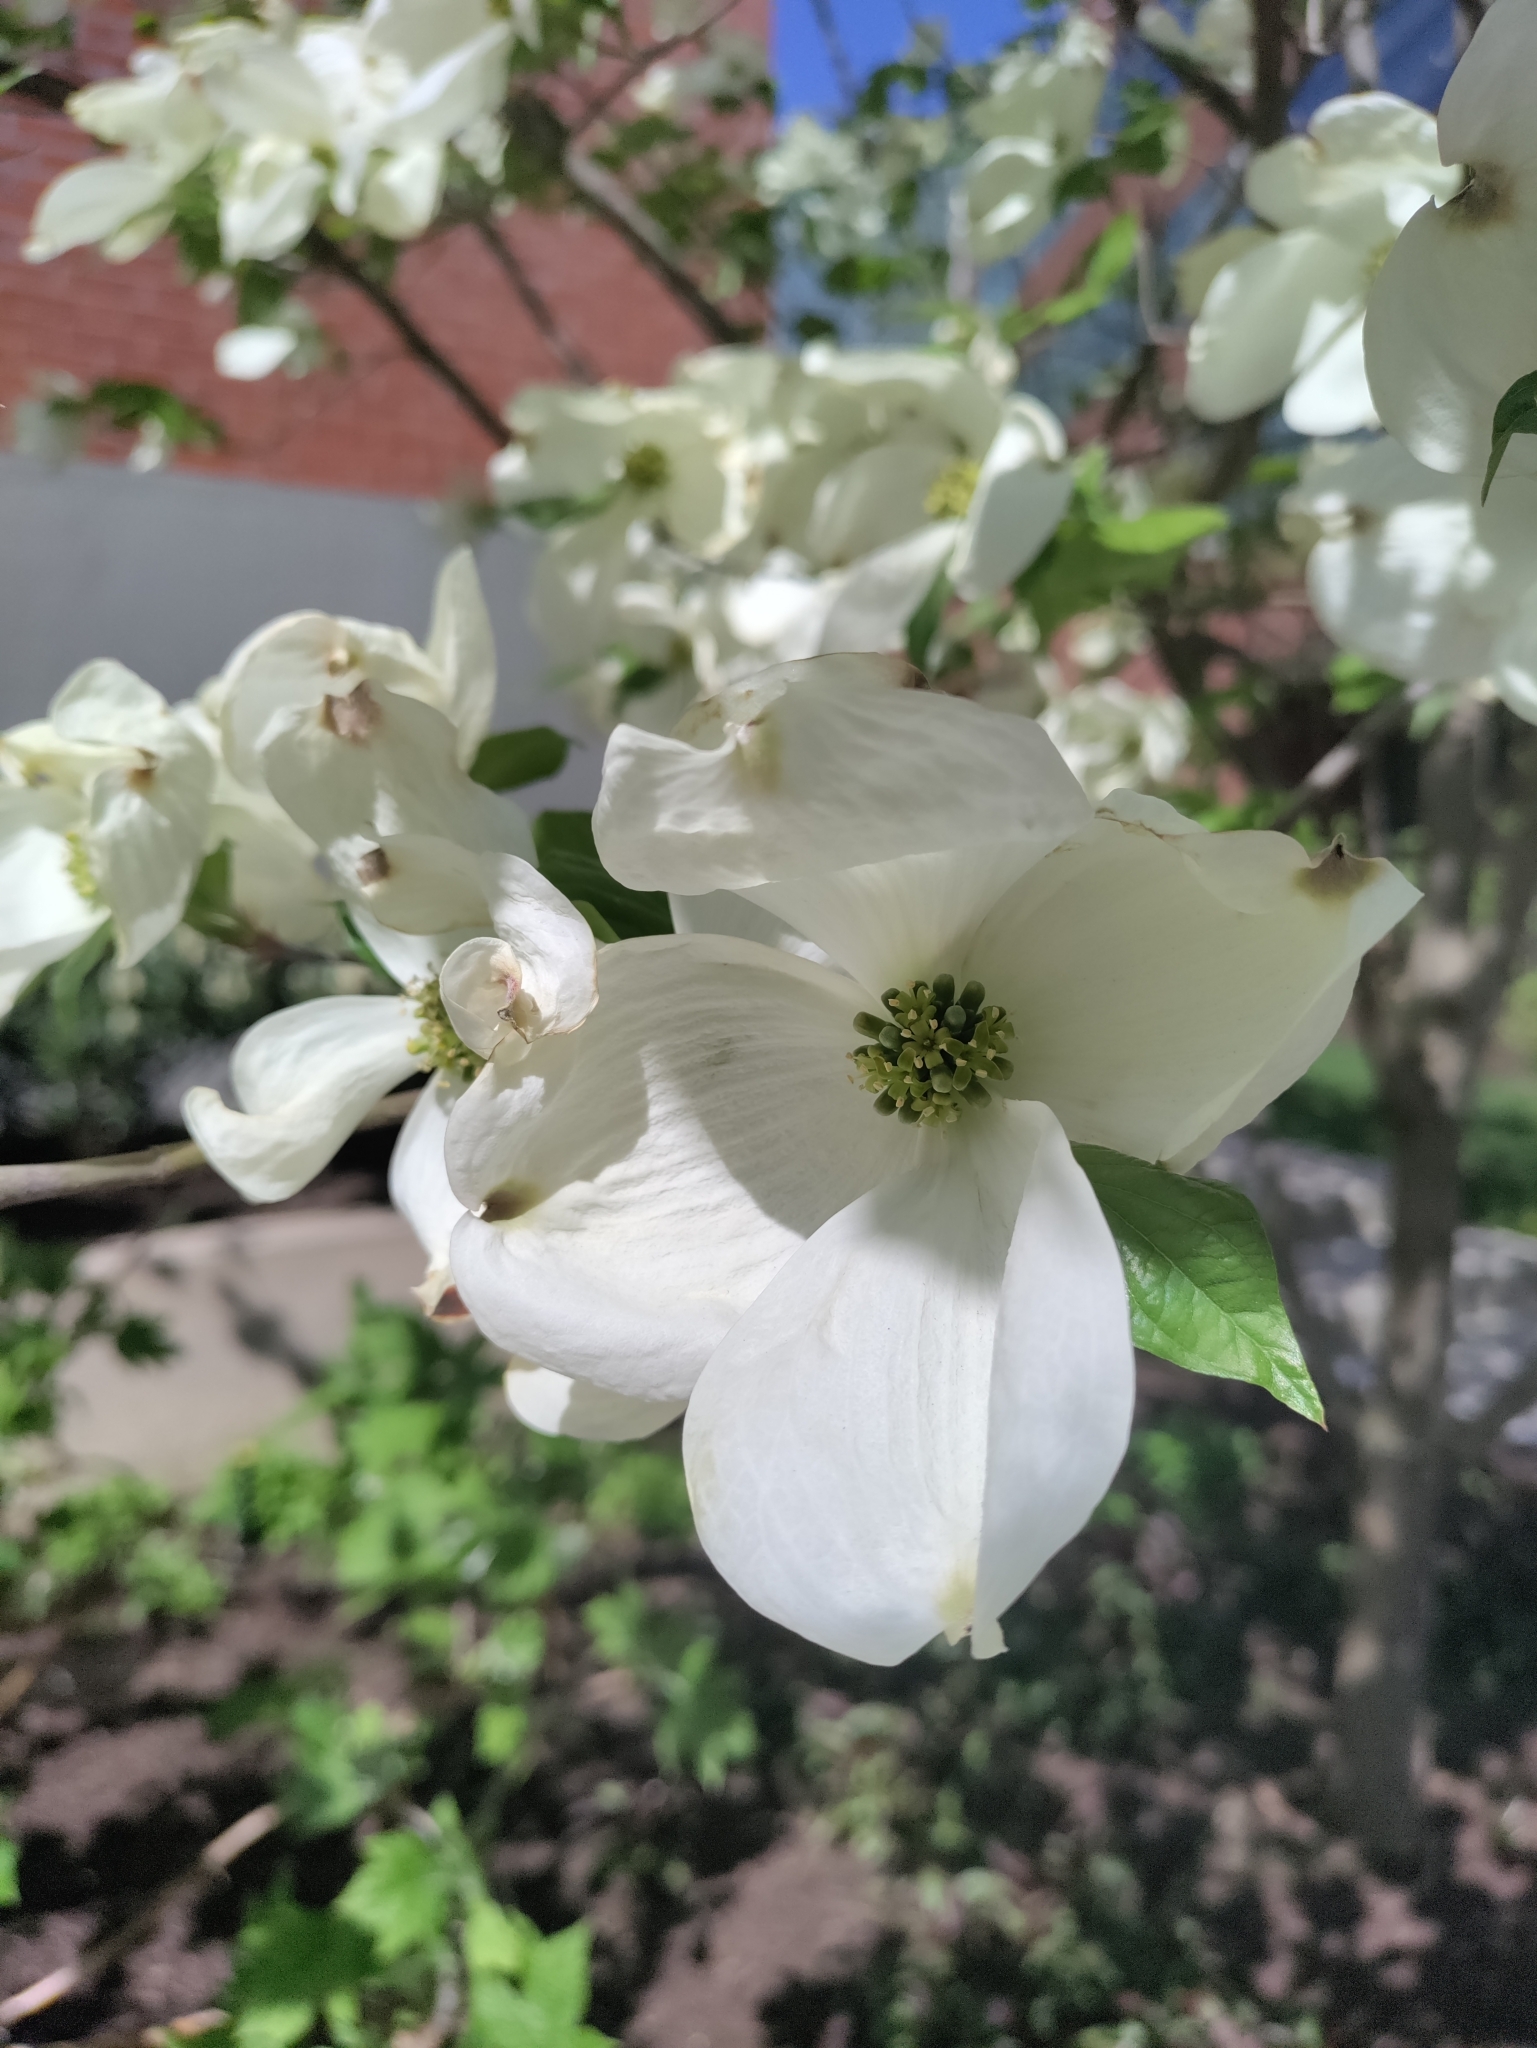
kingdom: Plantae
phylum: Tracheophyta
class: Magnoliopsida
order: Cornales
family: Cornaceae
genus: Cornus
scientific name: Cornus florida
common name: Flowering dogwood
